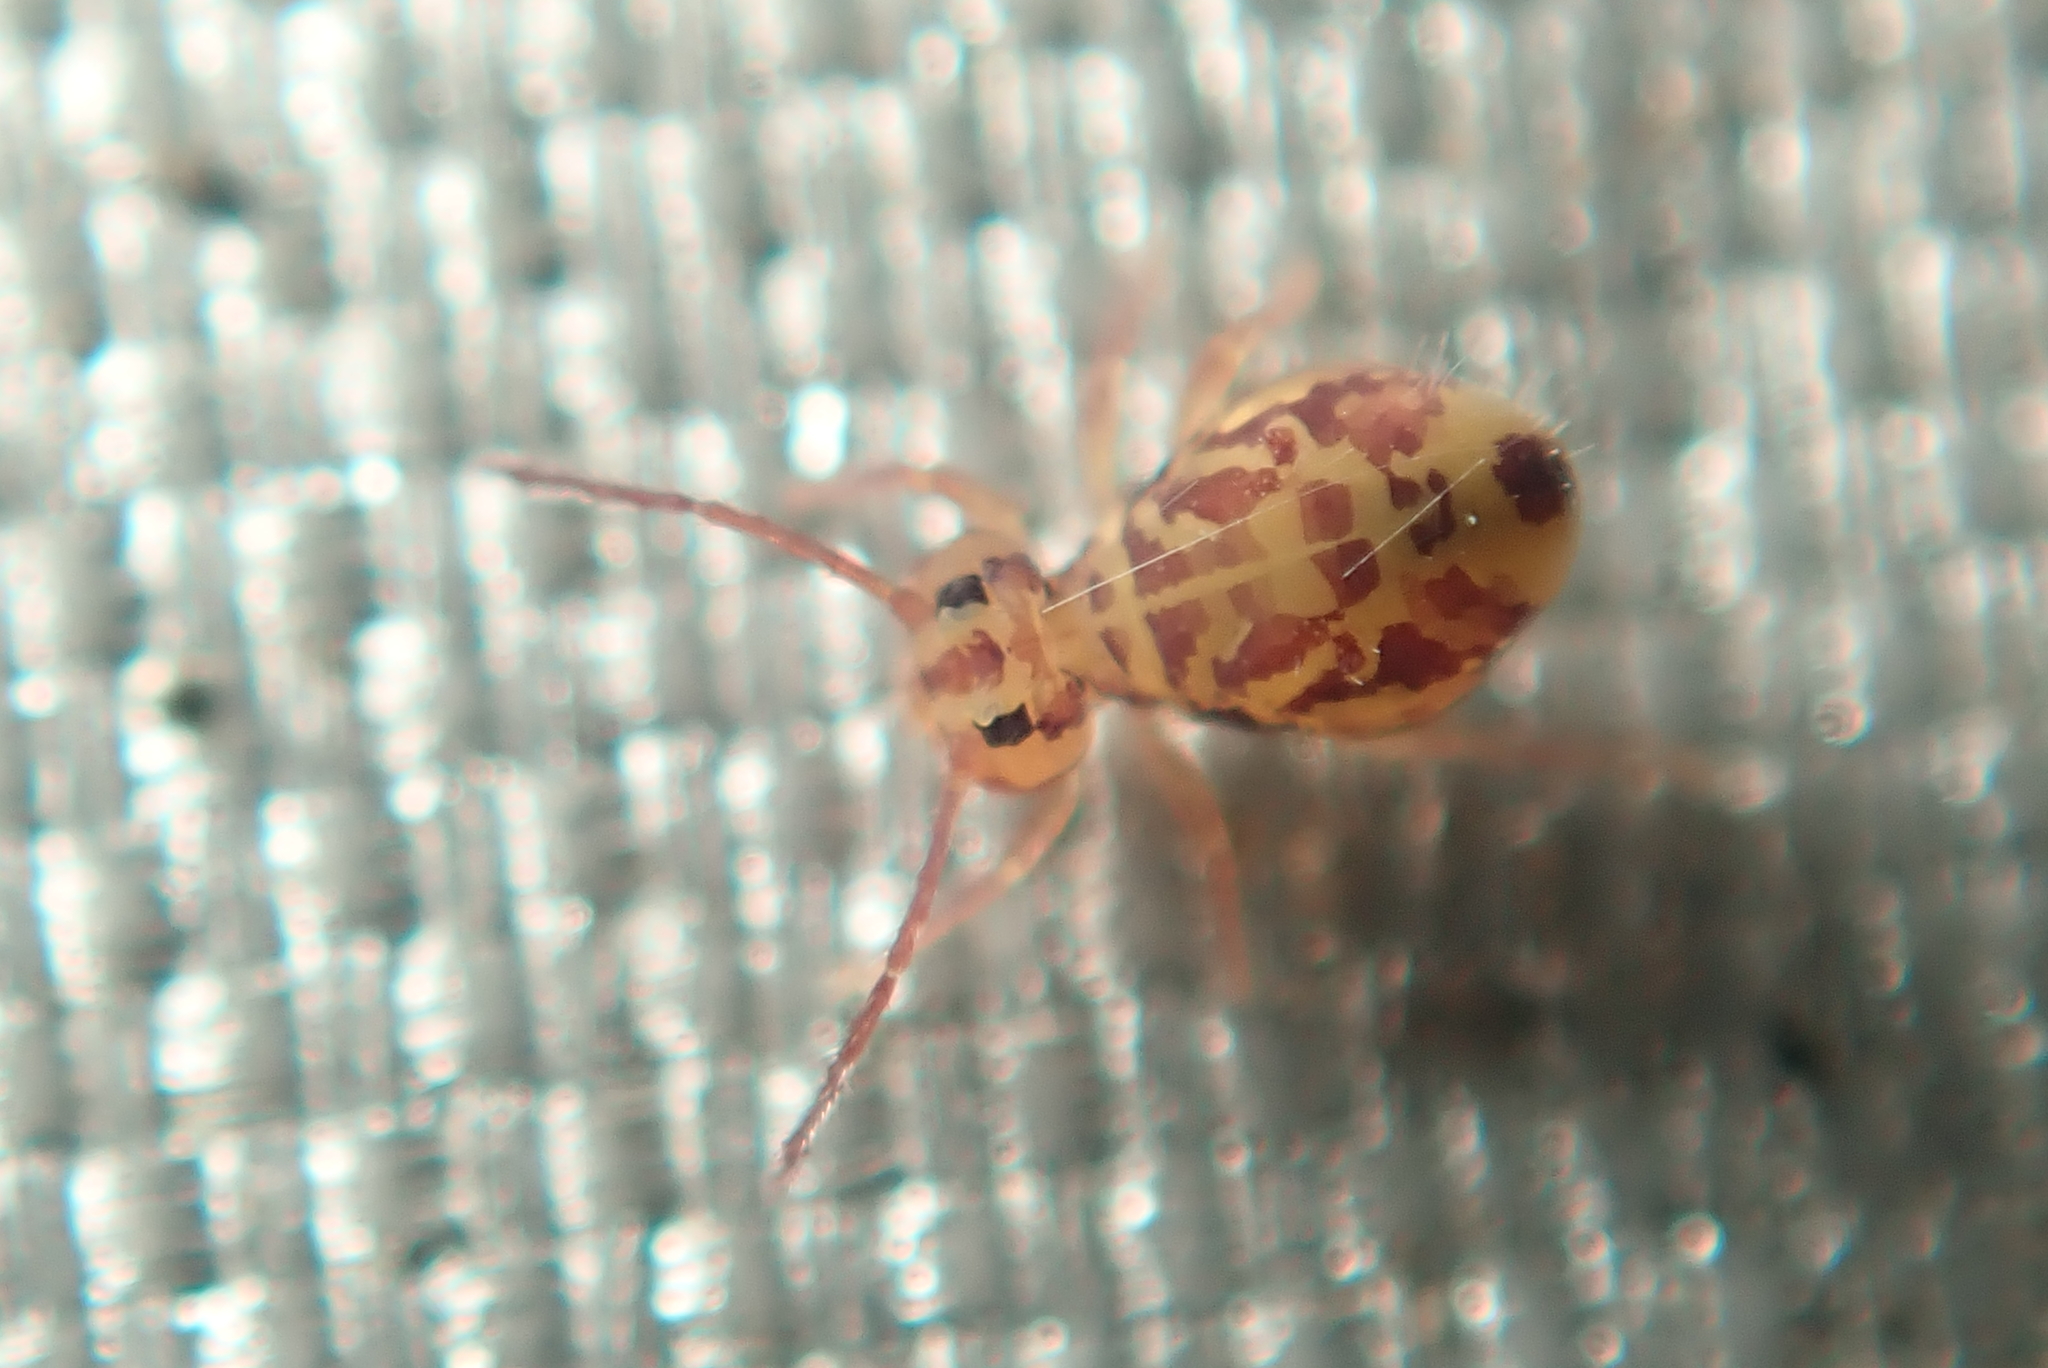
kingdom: Animalia
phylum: Arthropoda
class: Collembola
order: Symphypleona
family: Dicyrtomidae
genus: Dicyrtomina
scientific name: Dicyrtomina ornata
